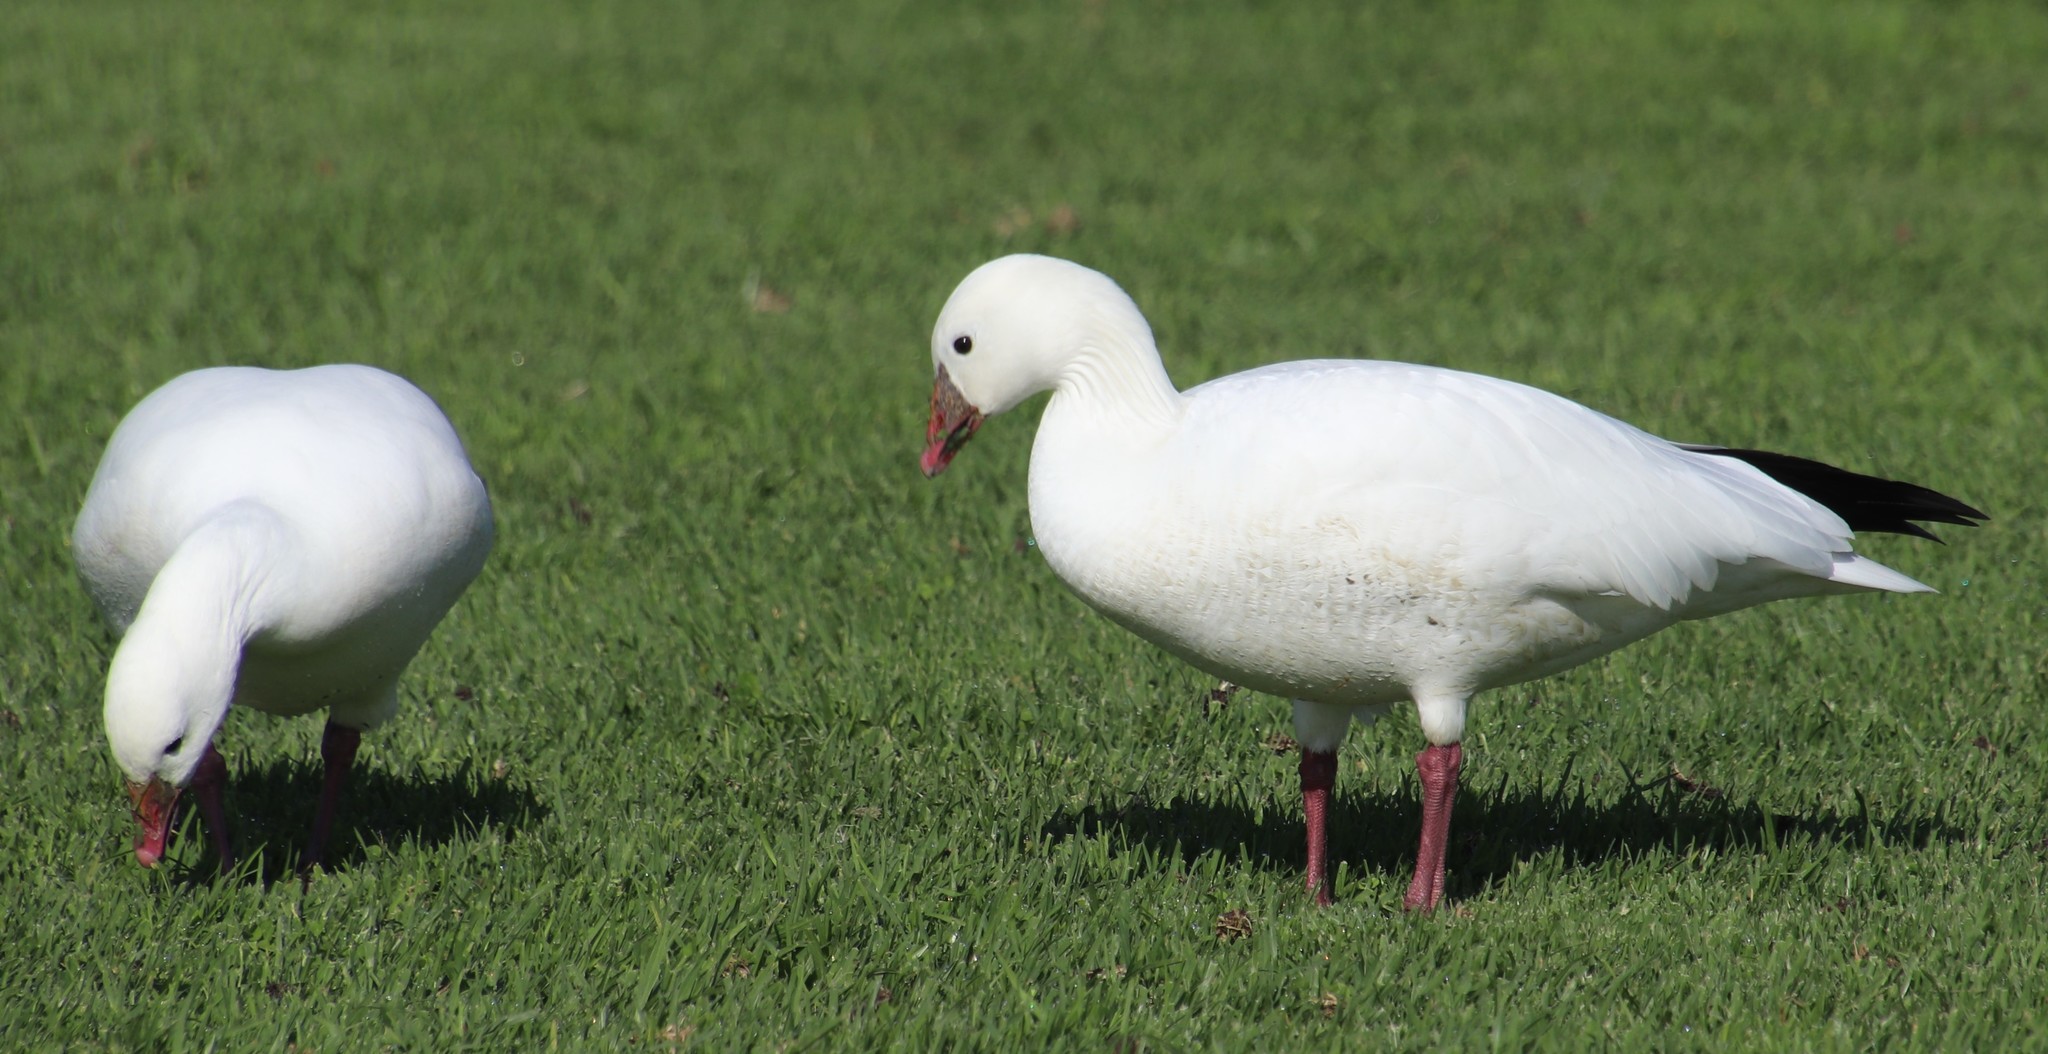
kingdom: Animalia
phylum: Chordata
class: Aves
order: Anseriformes
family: Anatidae
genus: Anser
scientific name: Anser rossii
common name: Ross's goose
